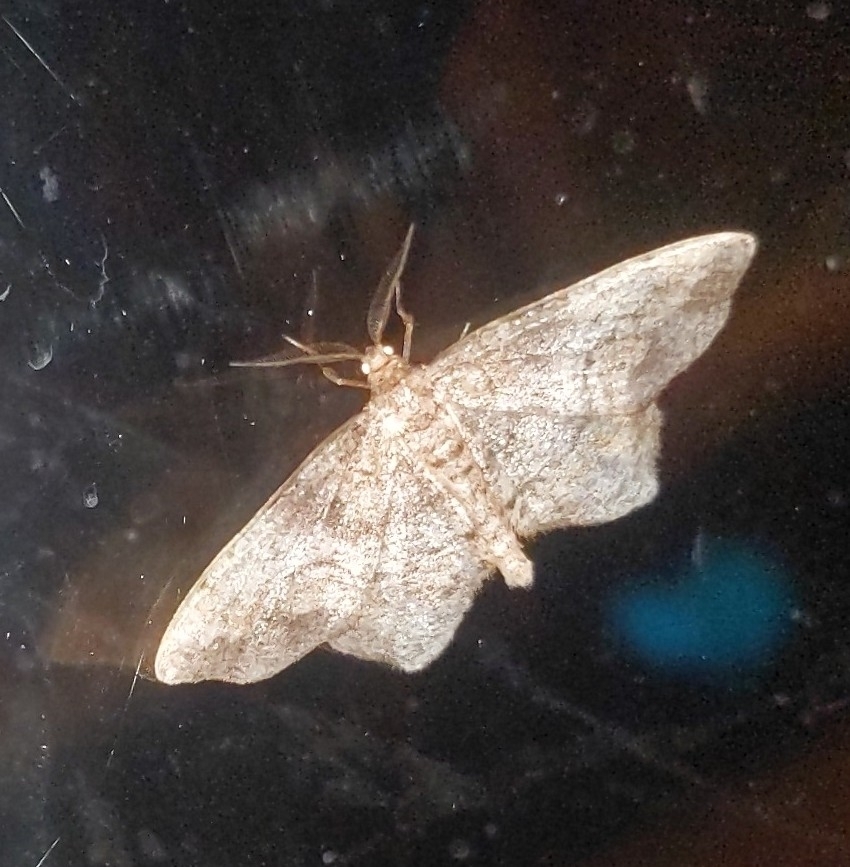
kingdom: Animalia
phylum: Arthropoda
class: Insecta
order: Lepidoptera
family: Geometridae
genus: Hypagyrtis
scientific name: Hypagyrtis unipunctata
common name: One-spotted variant
